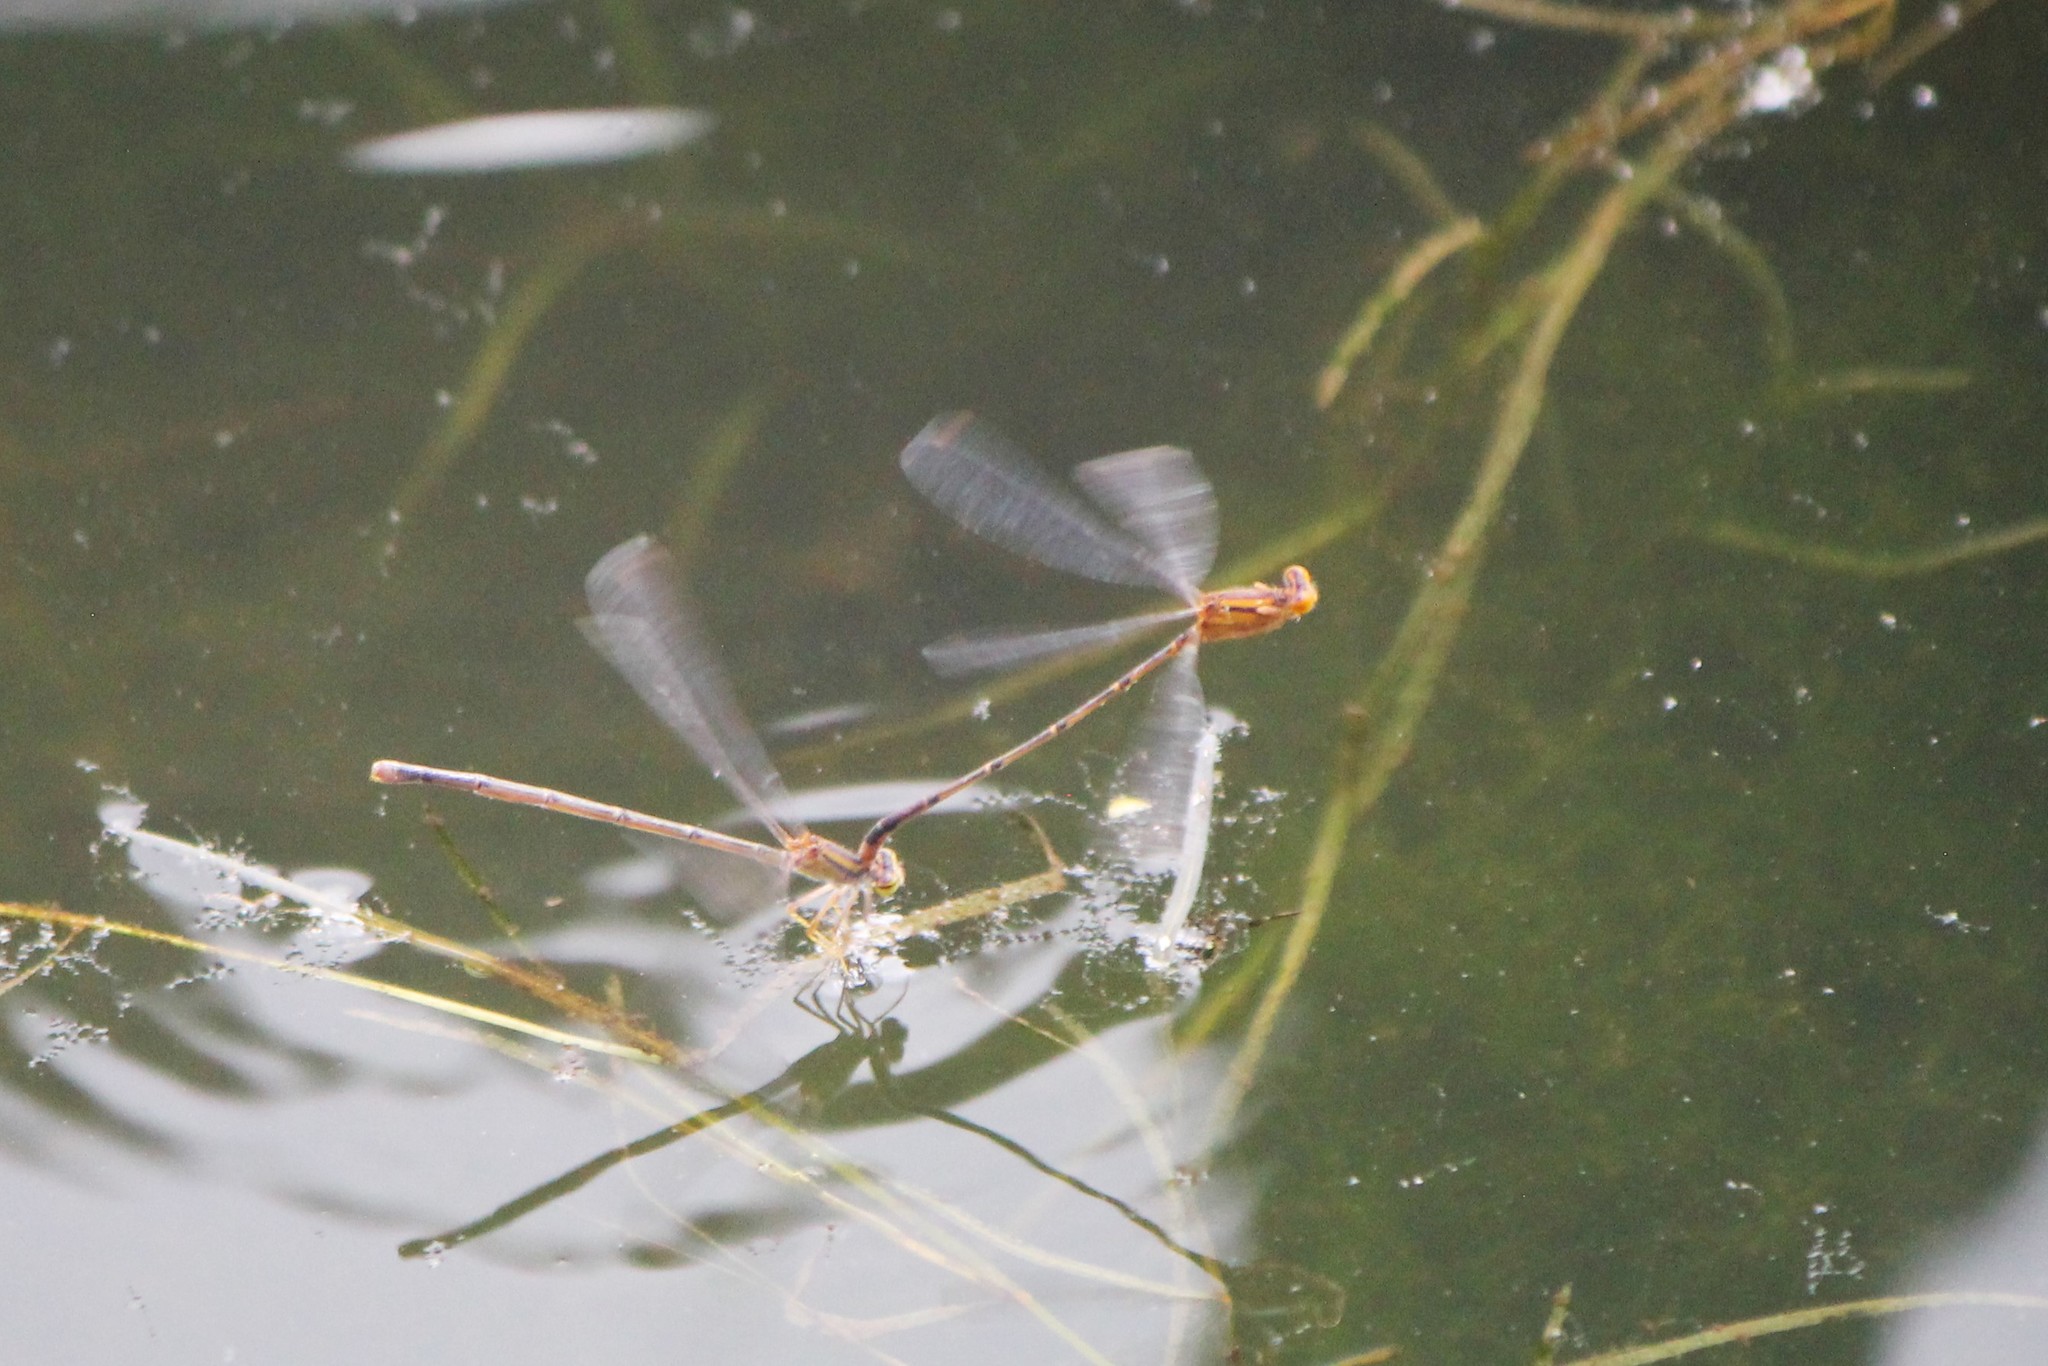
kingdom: Animalia
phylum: Arthropoda
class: Insecta
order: Odonata
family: Coenagrionidae
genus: Enallagma
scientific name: Enallagma signatum
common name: Orange bluet
